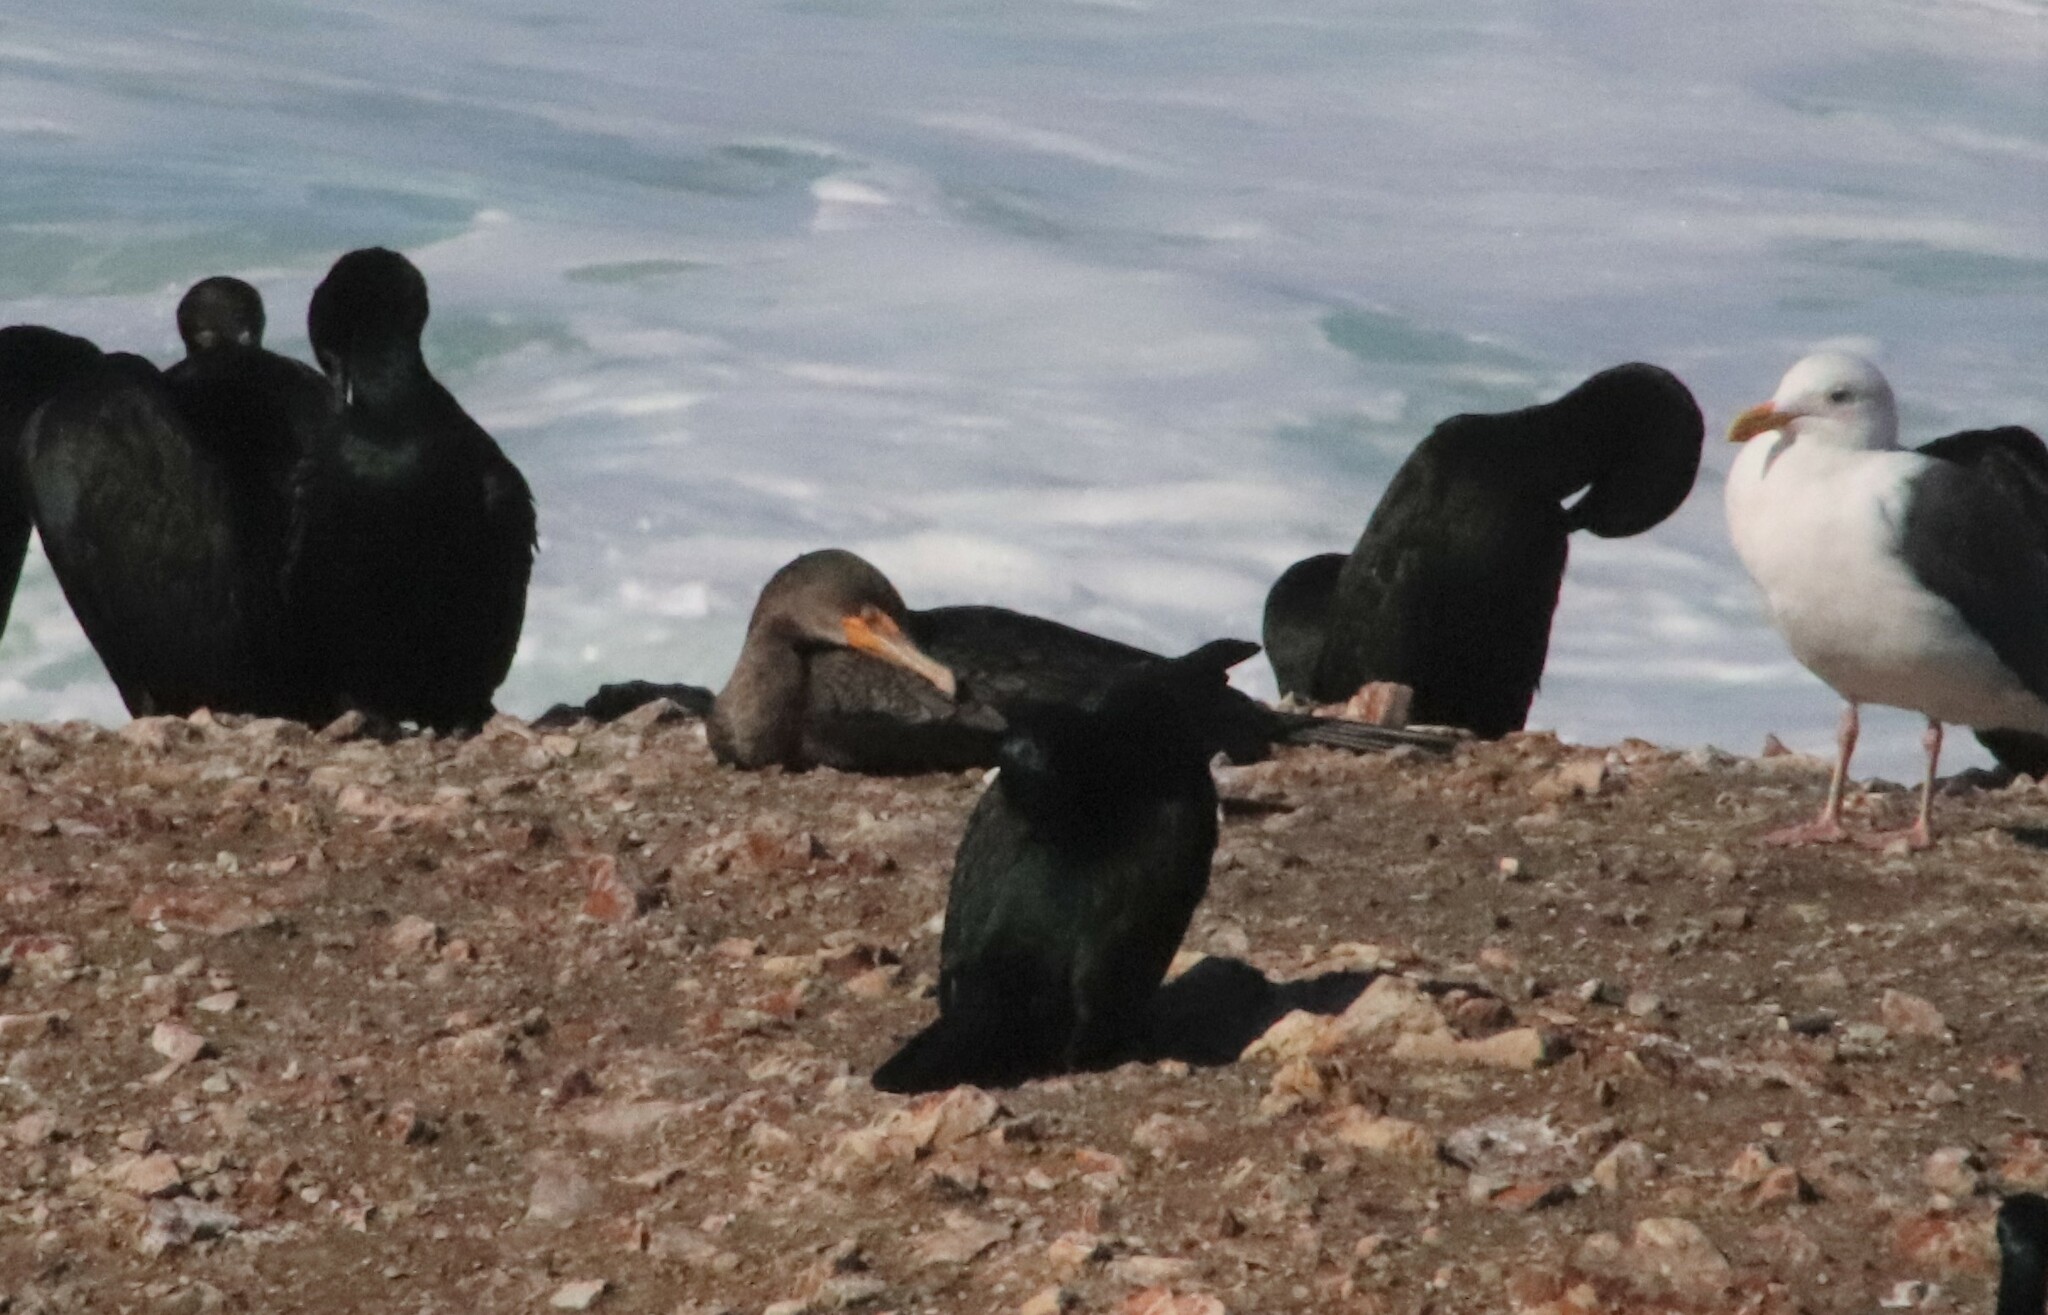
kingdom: Animalia
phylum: Chordata
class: Aves
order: Suliformes
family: Phalacrocoracidae
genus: Phalacrocorax
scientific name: Phalacrocorax auritus
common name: Double-crested cormorant
